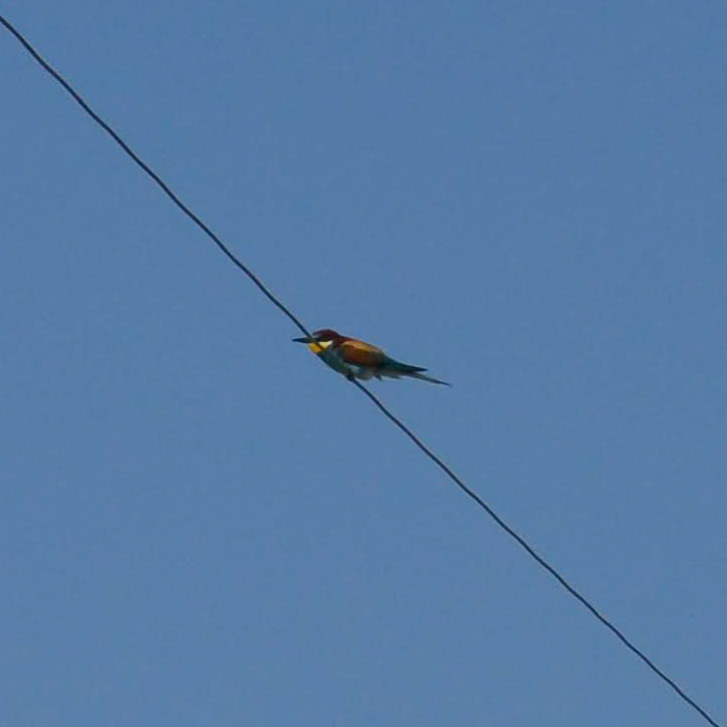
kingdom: Animalia
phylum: Chordata
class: Aves
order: Coraciiformes
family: Meropidae
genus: Merops
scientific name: Merops apiaster
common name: European bee-eater
